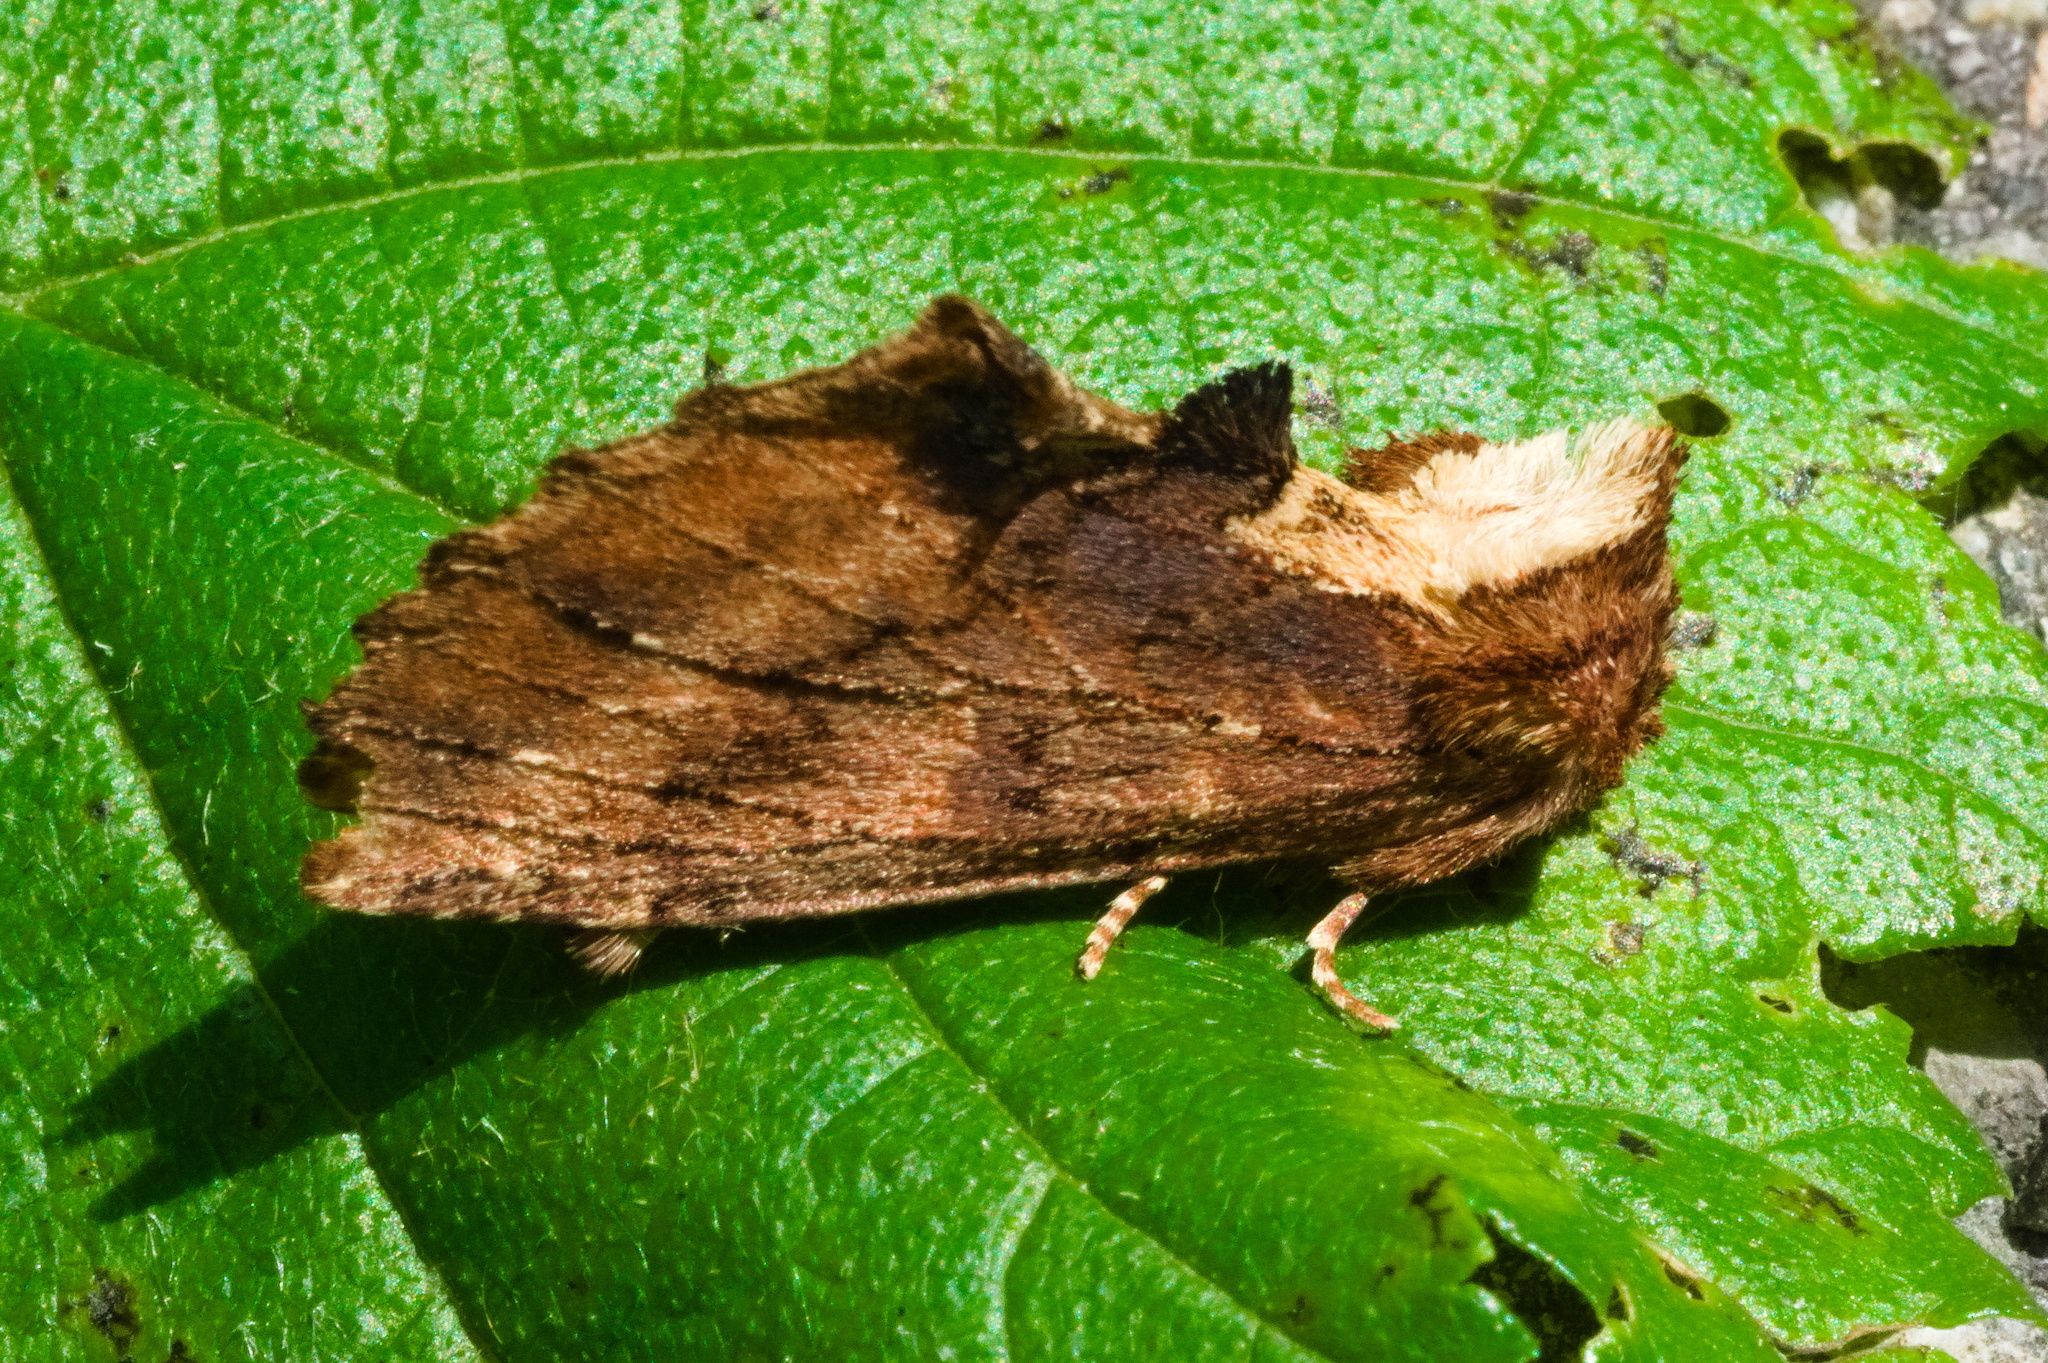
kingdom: Animalia
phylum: Arthropoda
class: Insecta
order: Lepidoptera
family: Notodontidae
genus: Ptilodon
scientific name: Ptilodon capucina
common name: Coxcomb prominent
